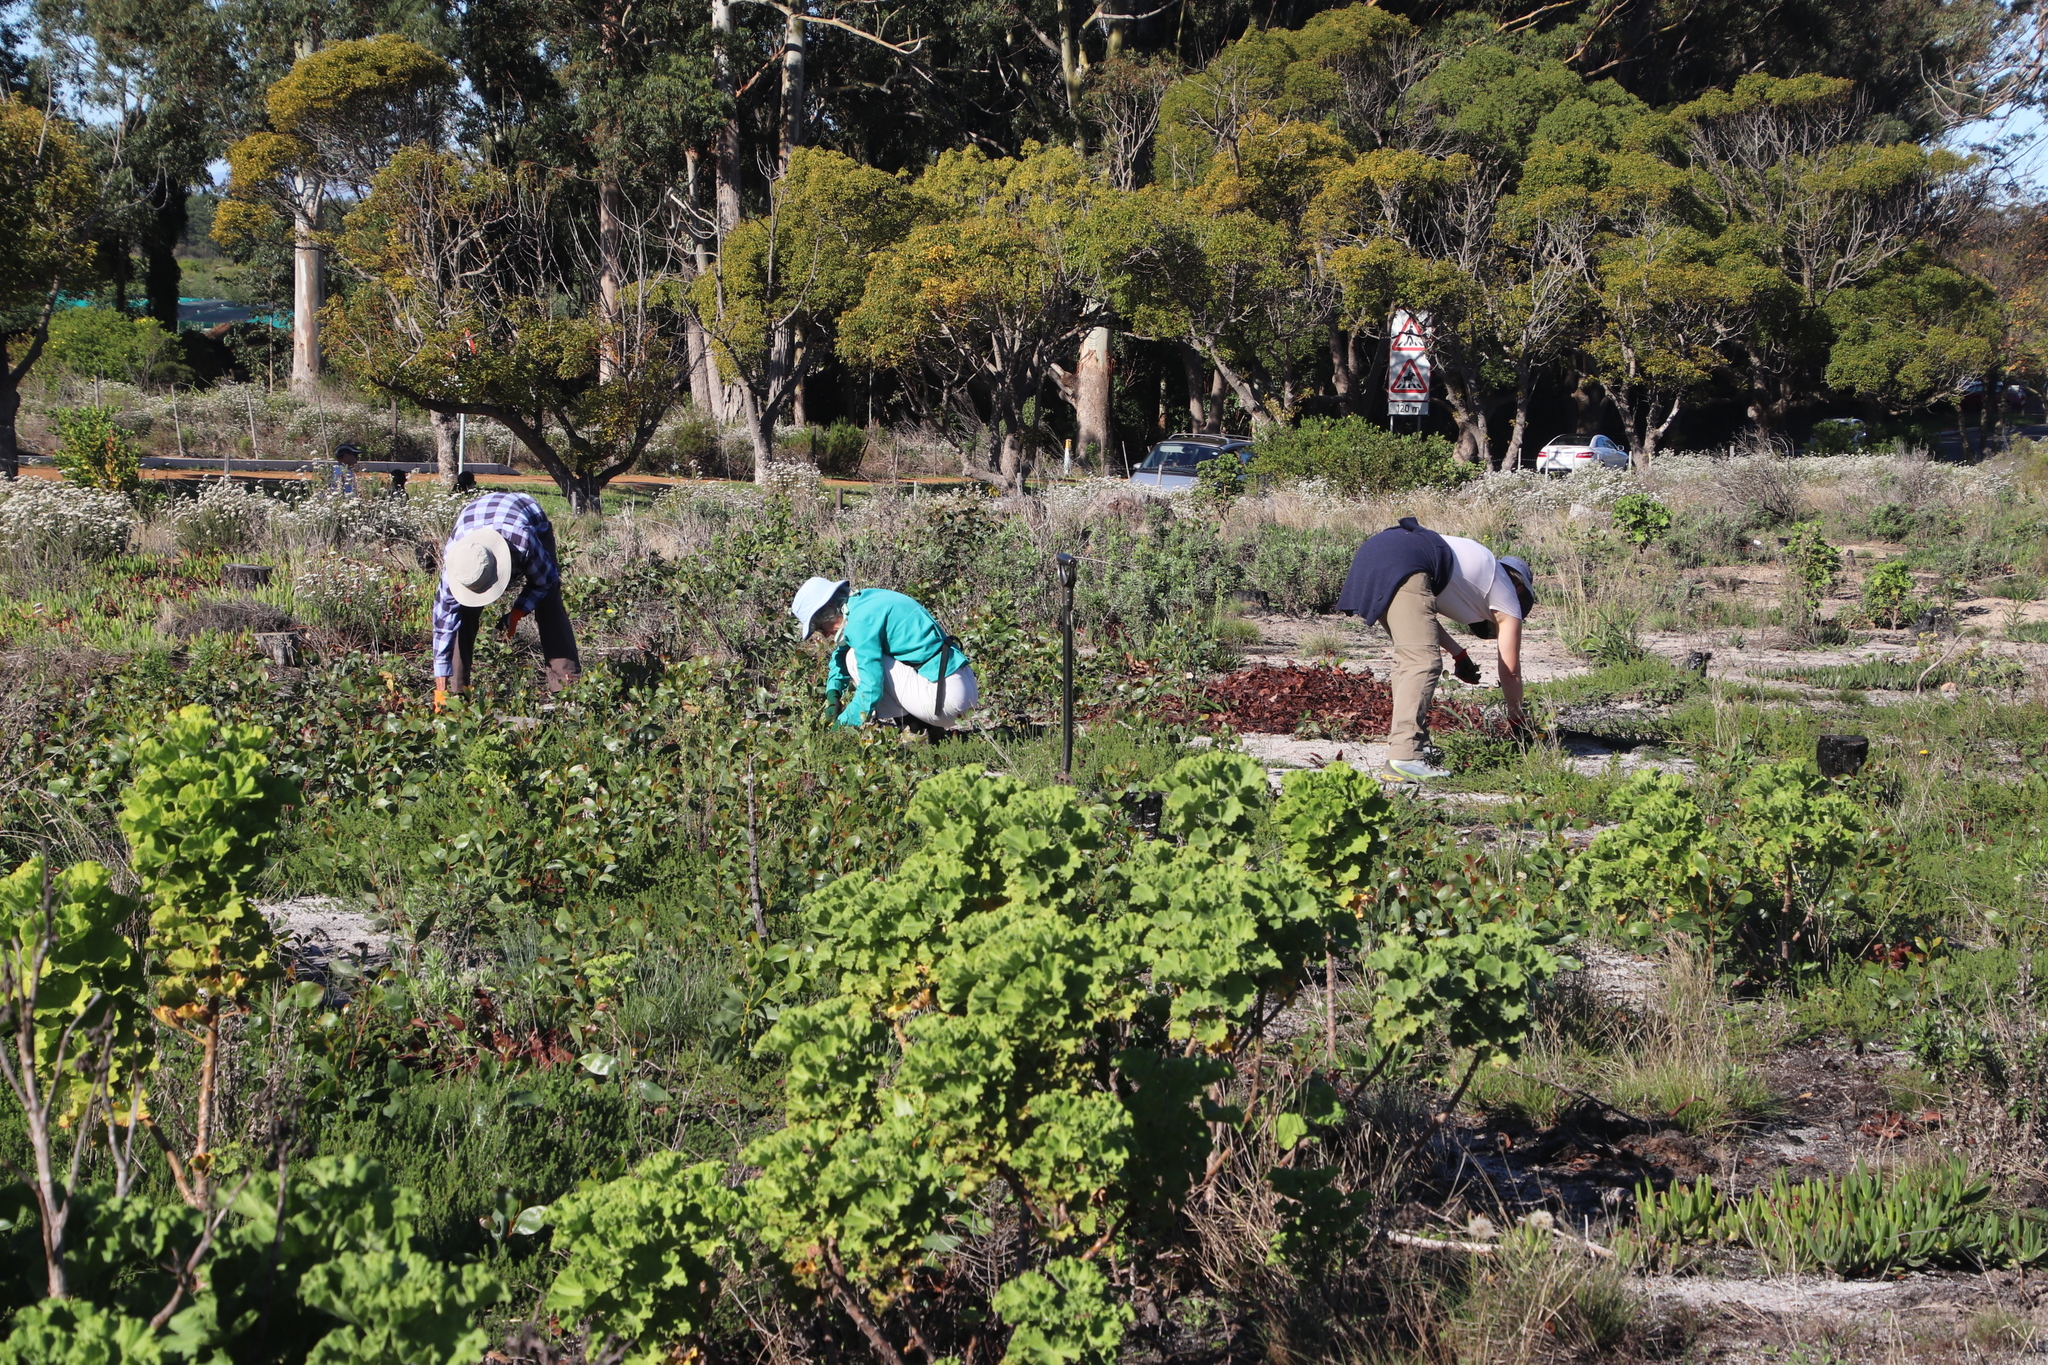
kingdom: Plantae
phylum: Tracheophyta
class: Magnoliopsida
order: Geraniales
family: Geraniaceae
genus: Pelargonium
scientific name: Pelargonium cucullatum
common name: Tree pelargonium
